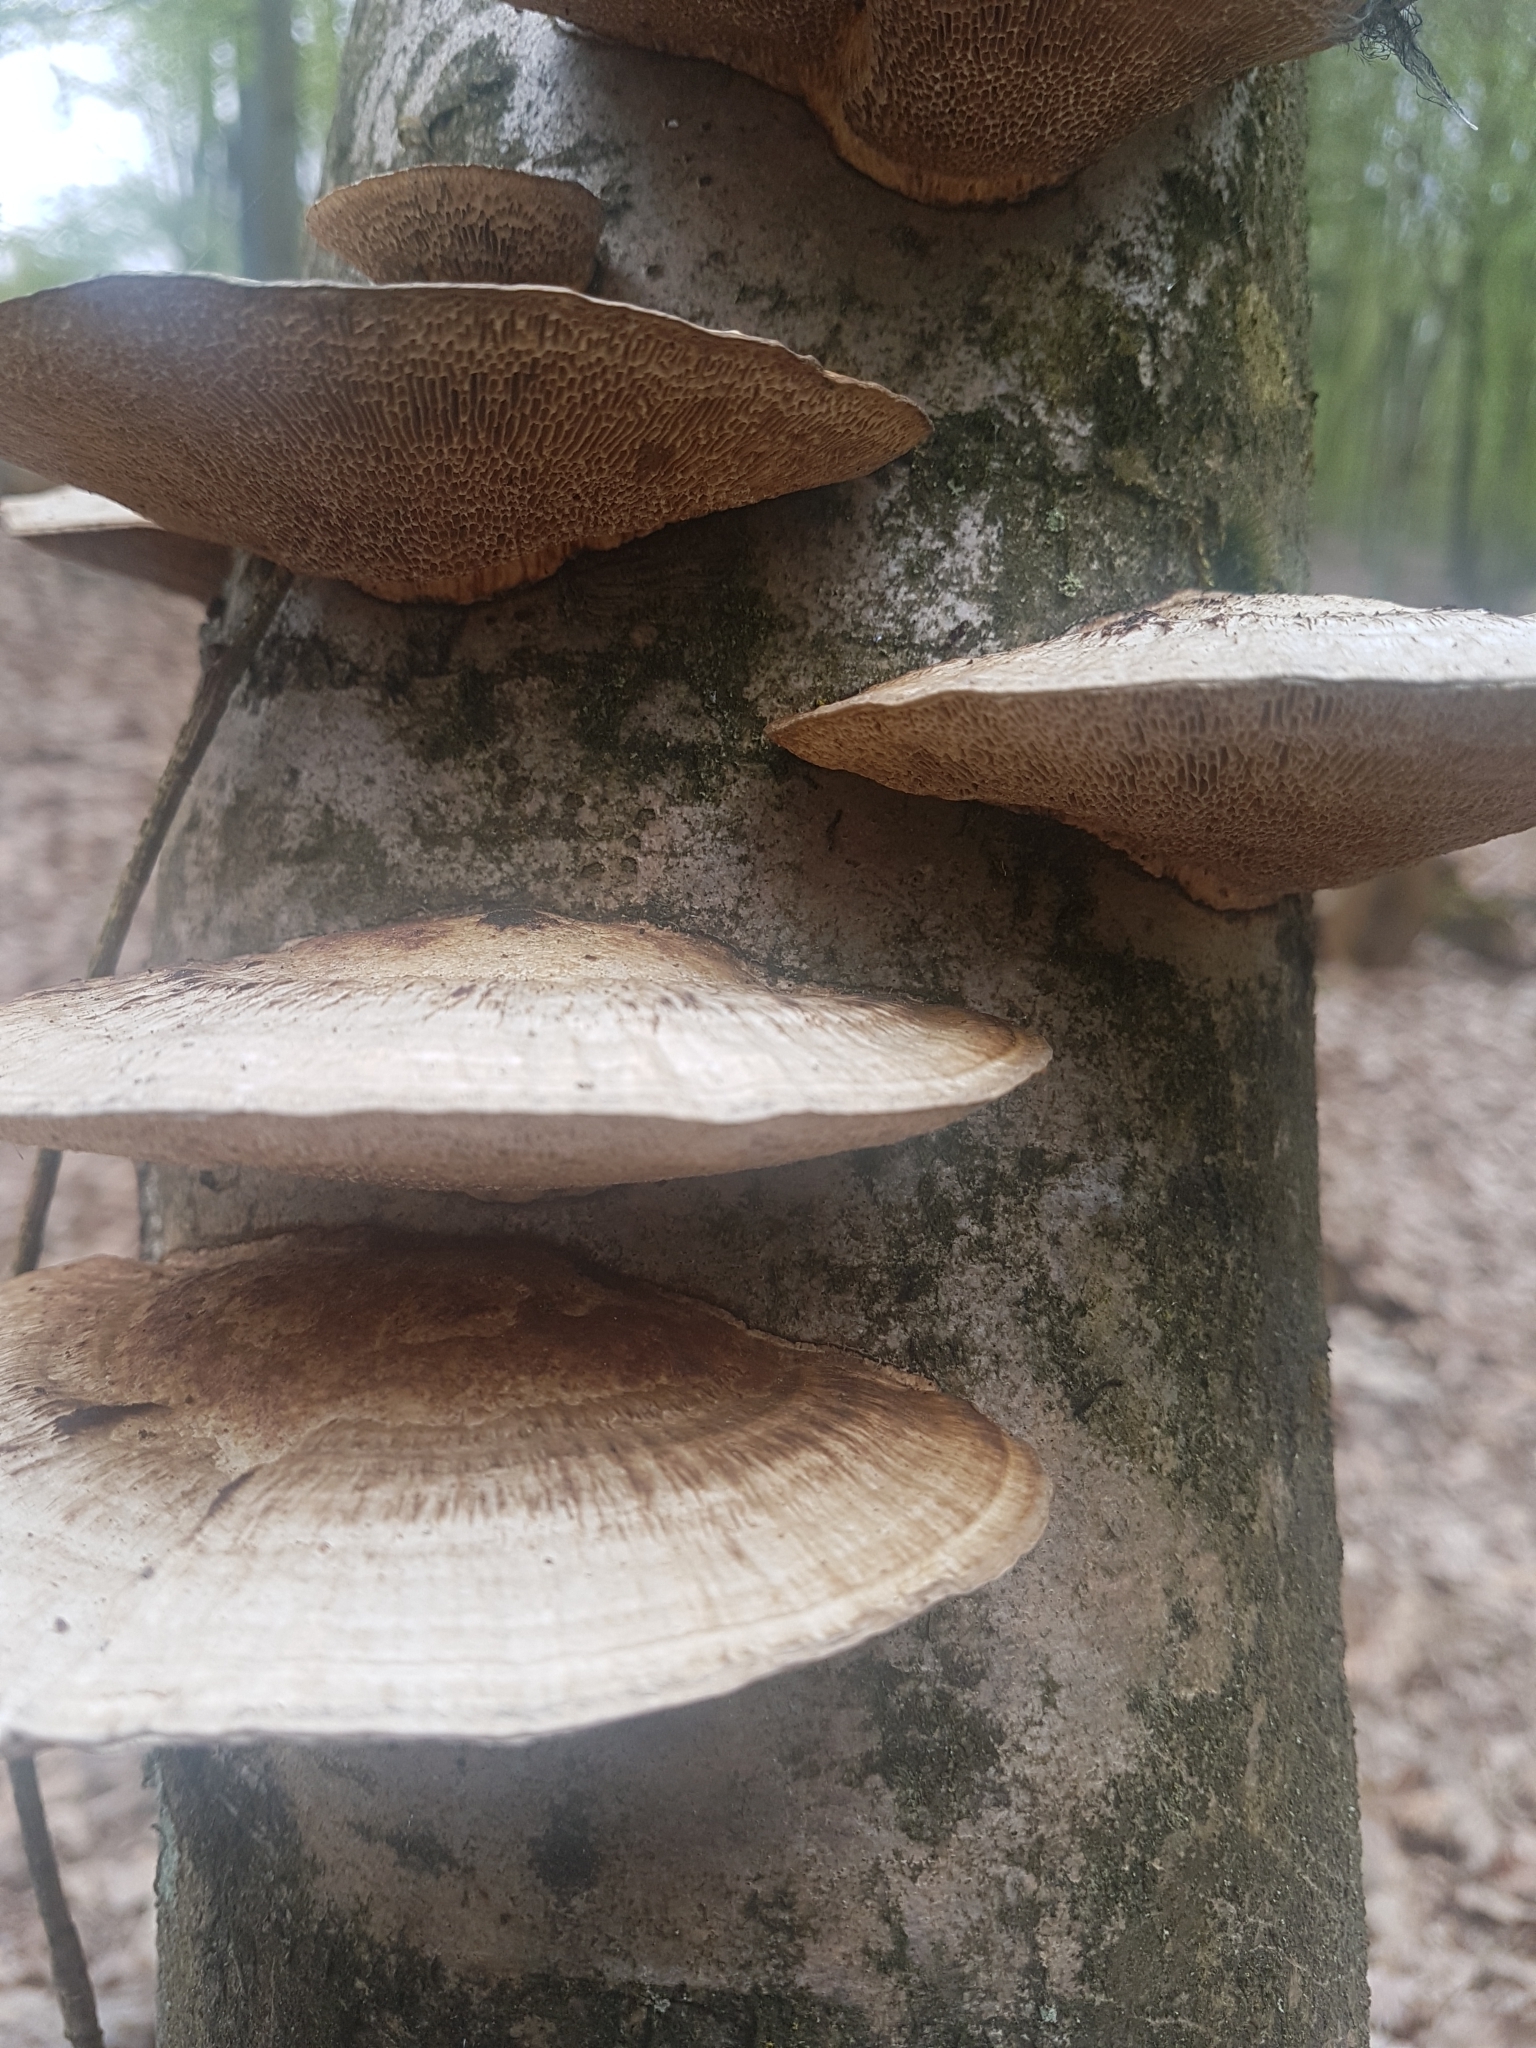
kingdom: Fungi
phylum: Basidiomycota
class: Agaricomycetes
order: Polyporales
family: Fomitopsidaceae
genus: Fomitopsis
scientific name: Fomitopsis
